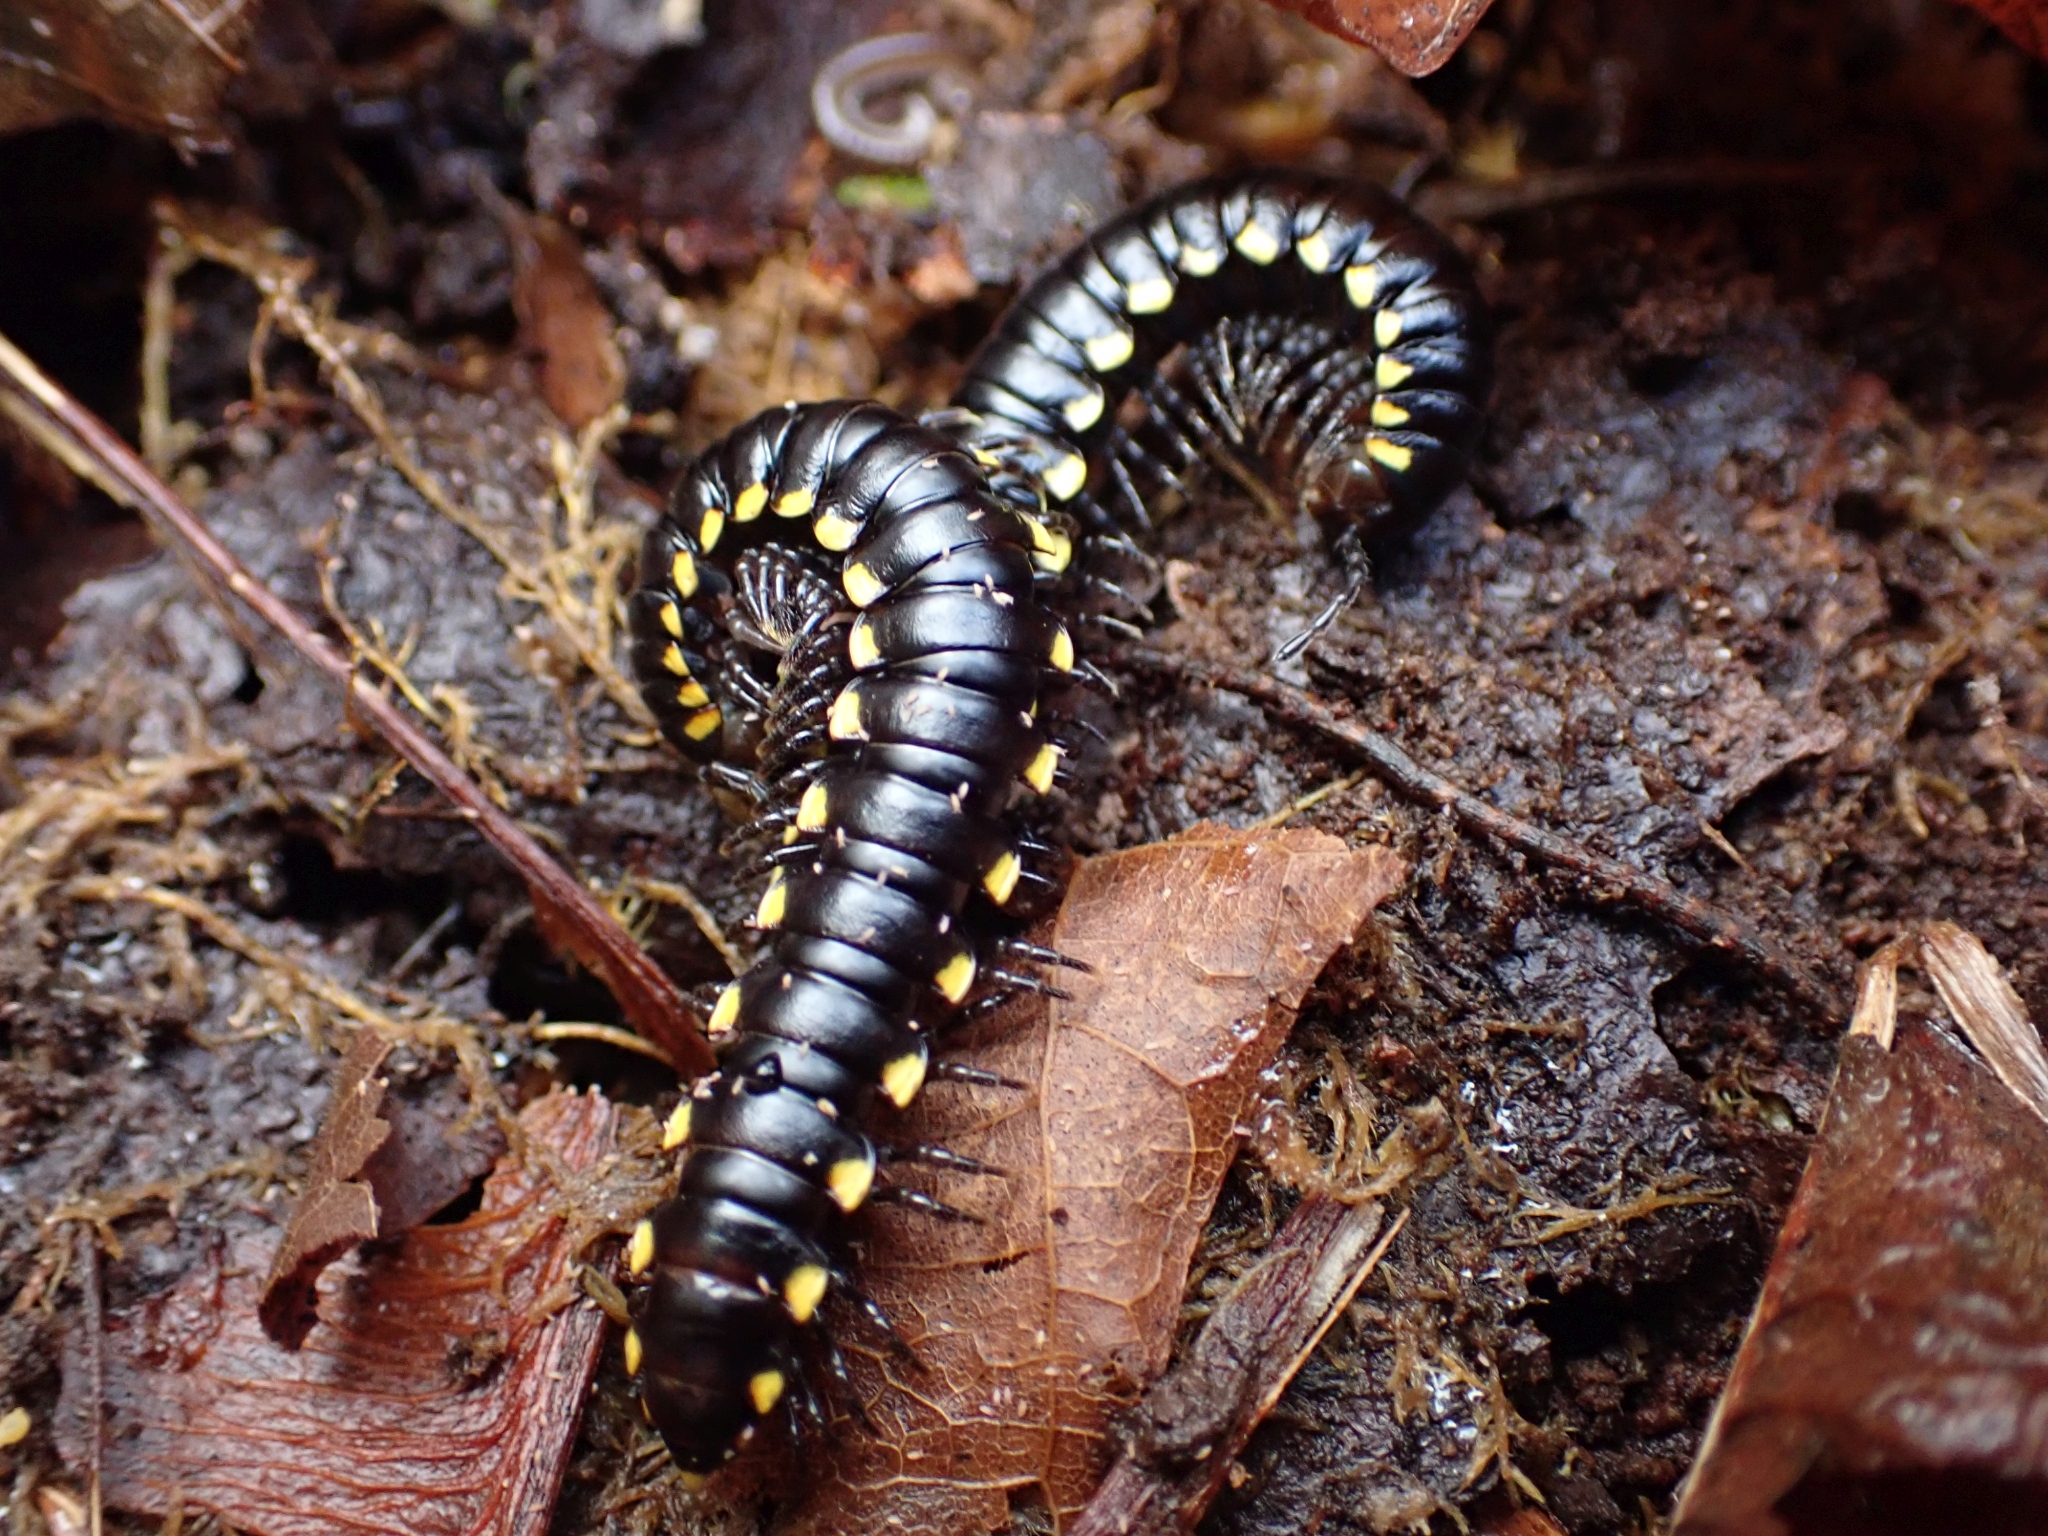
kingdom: Animalia
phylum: Arthropoda
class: Diplopoda
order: Polydesmida
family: Xystodesmidae
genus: Harpaphe
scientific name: Harpaphe haydeniana
